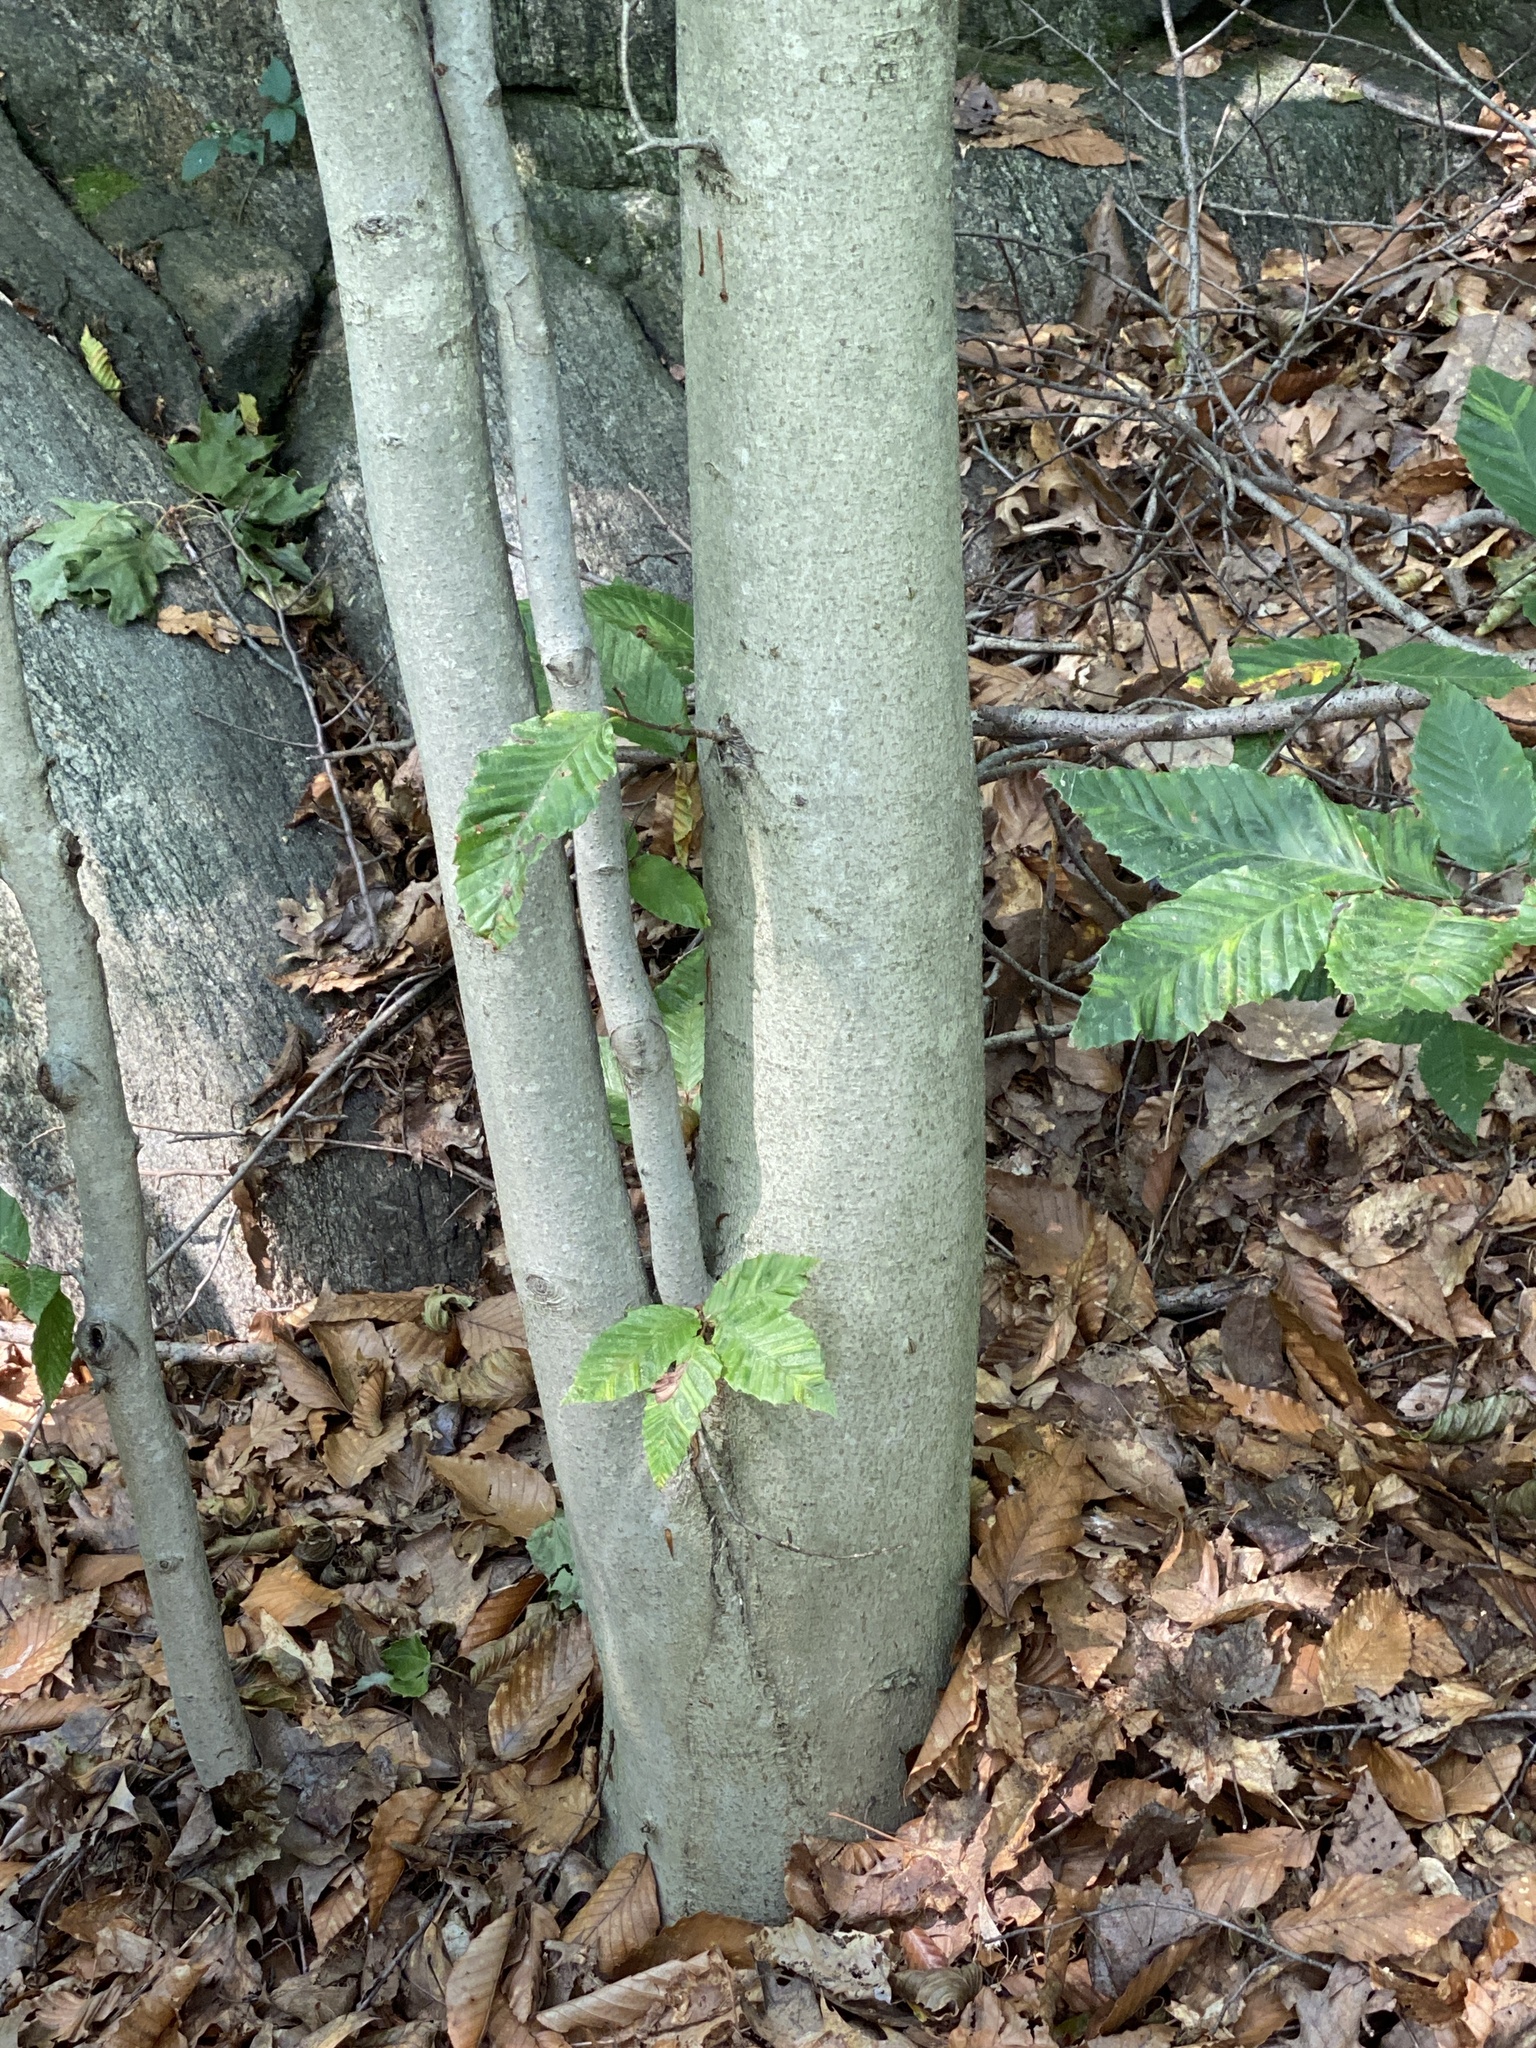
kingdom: Plantae
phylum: Tracheophyta
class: Magnoliopsida
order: Fagales
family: Fagaceae
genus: Fagus
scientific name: Fagus grandifolia
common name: American beech
